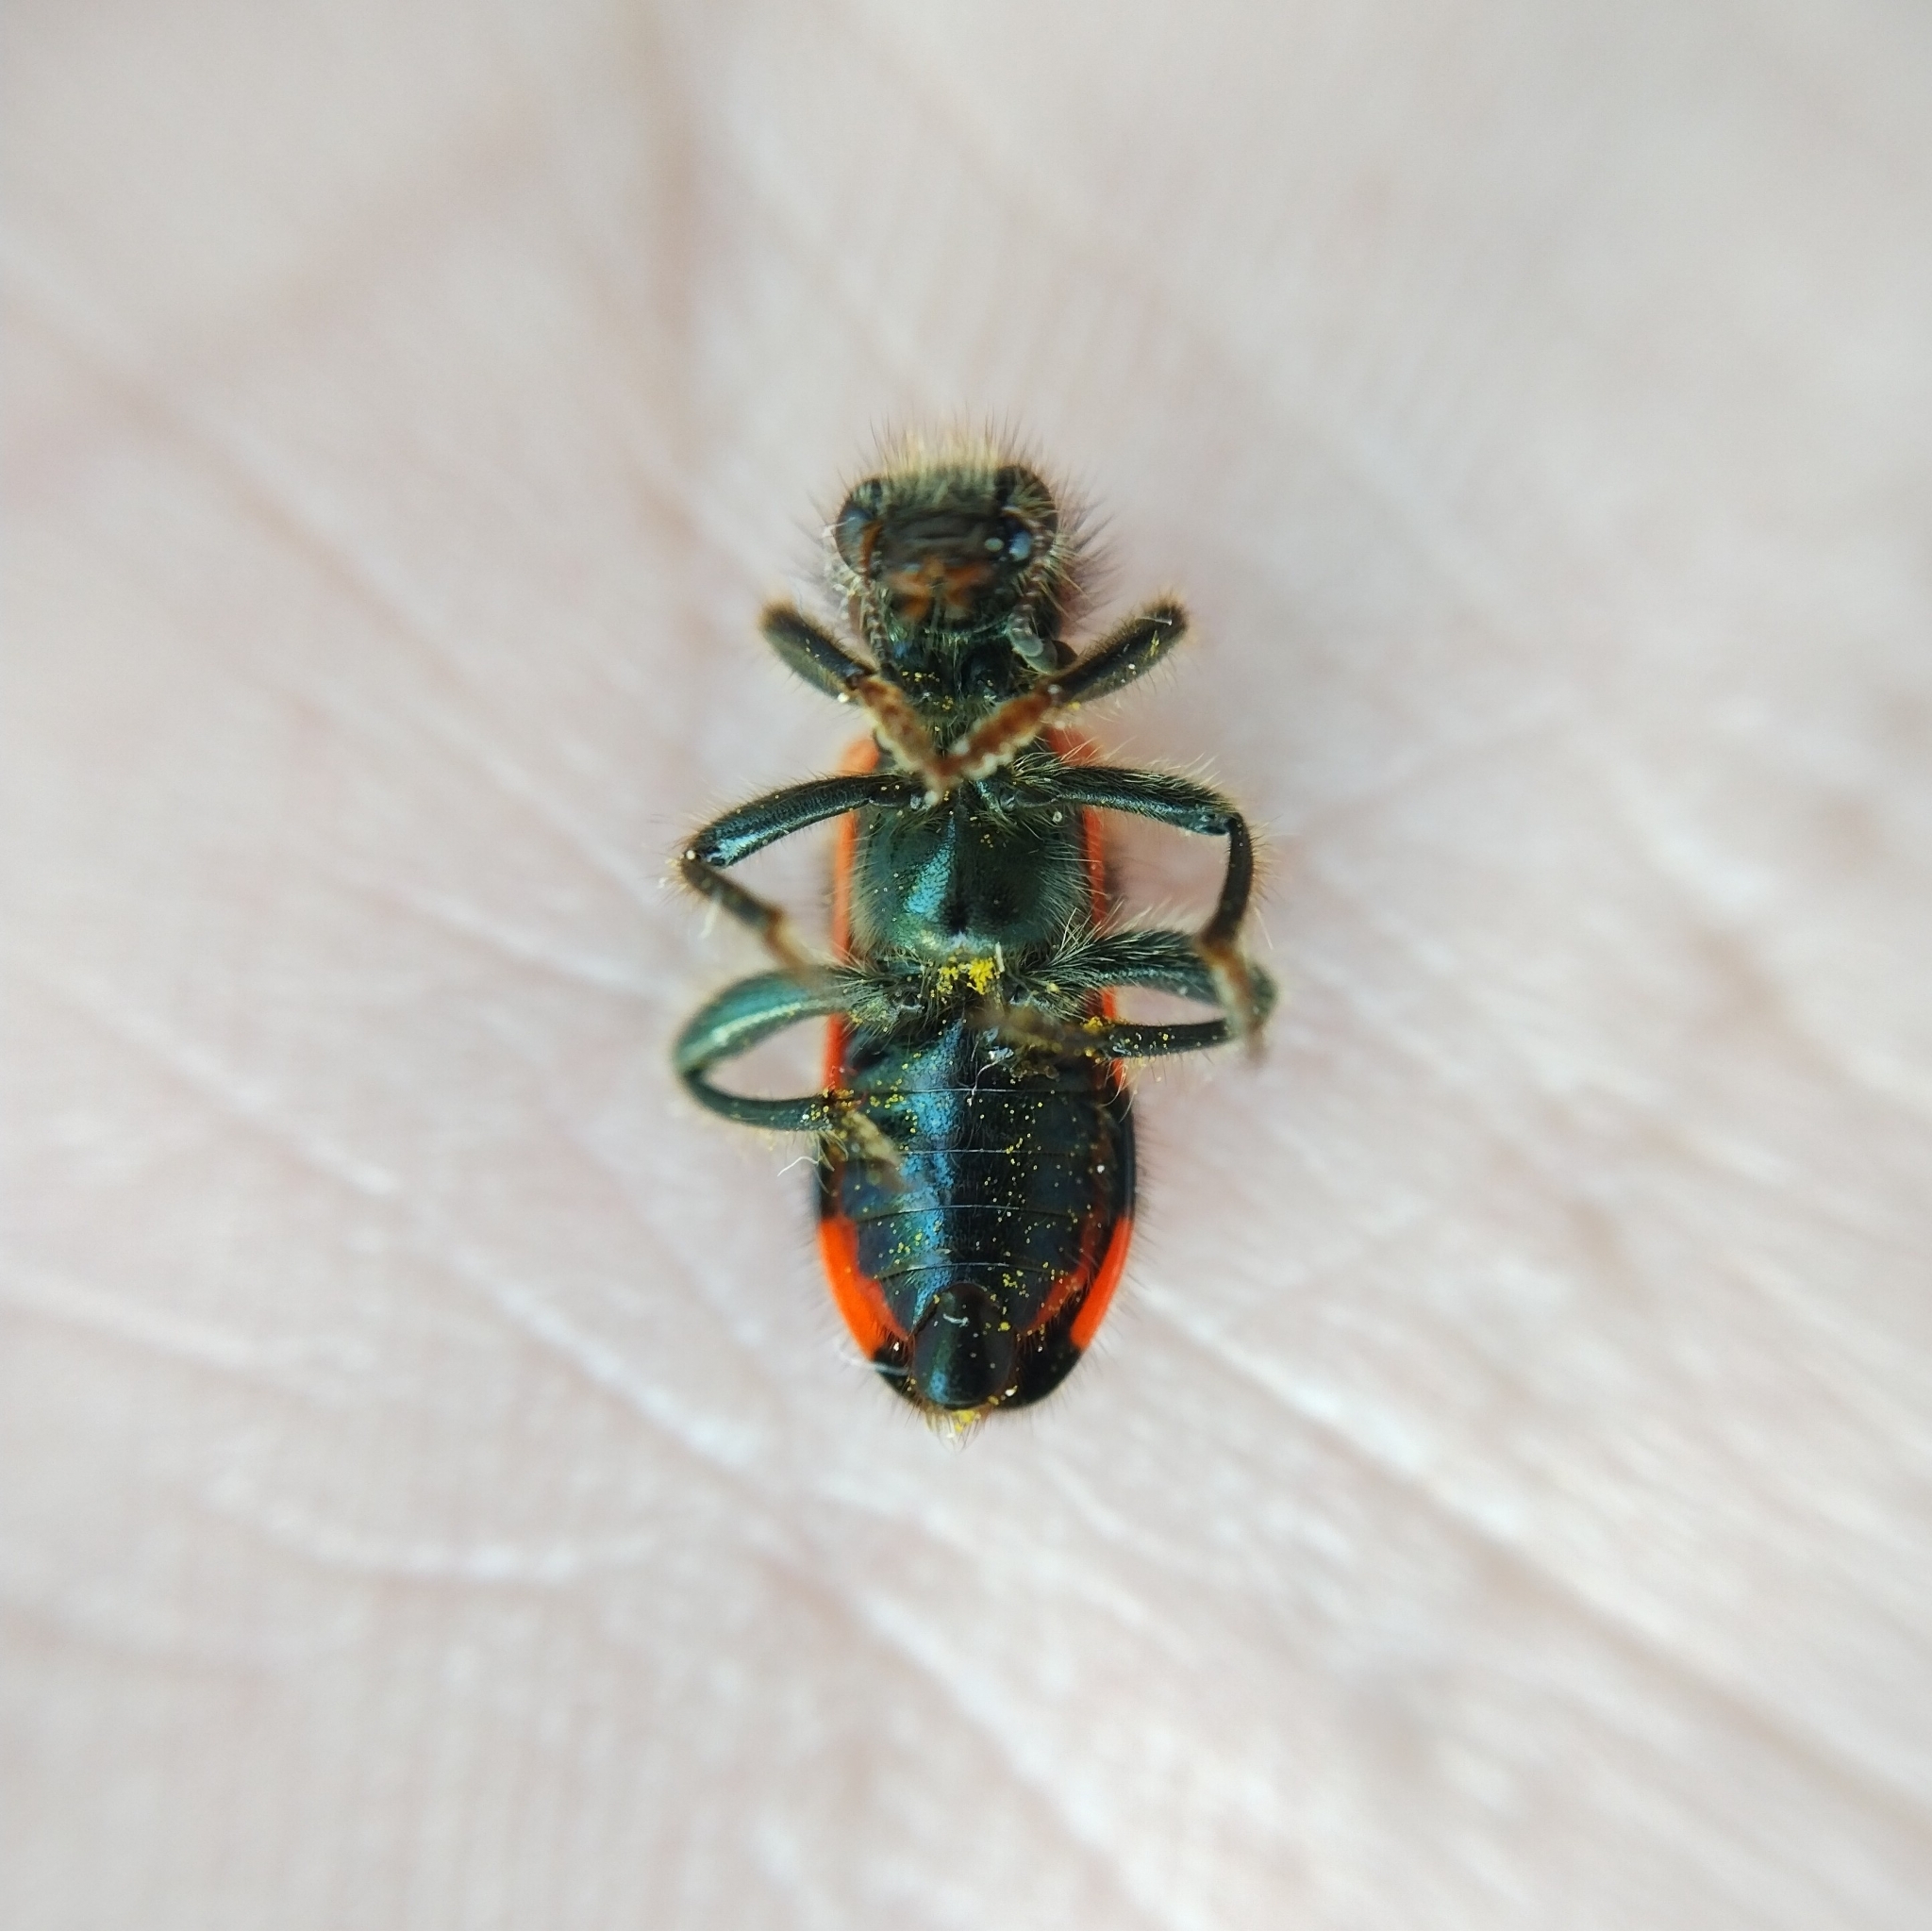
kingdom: Animalia
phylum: Arthropoda
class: Insecta
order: Coleoptera
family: Cleridae
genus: Trichodes
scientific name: Trichodes apiarius
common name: Bee-eating beetle
